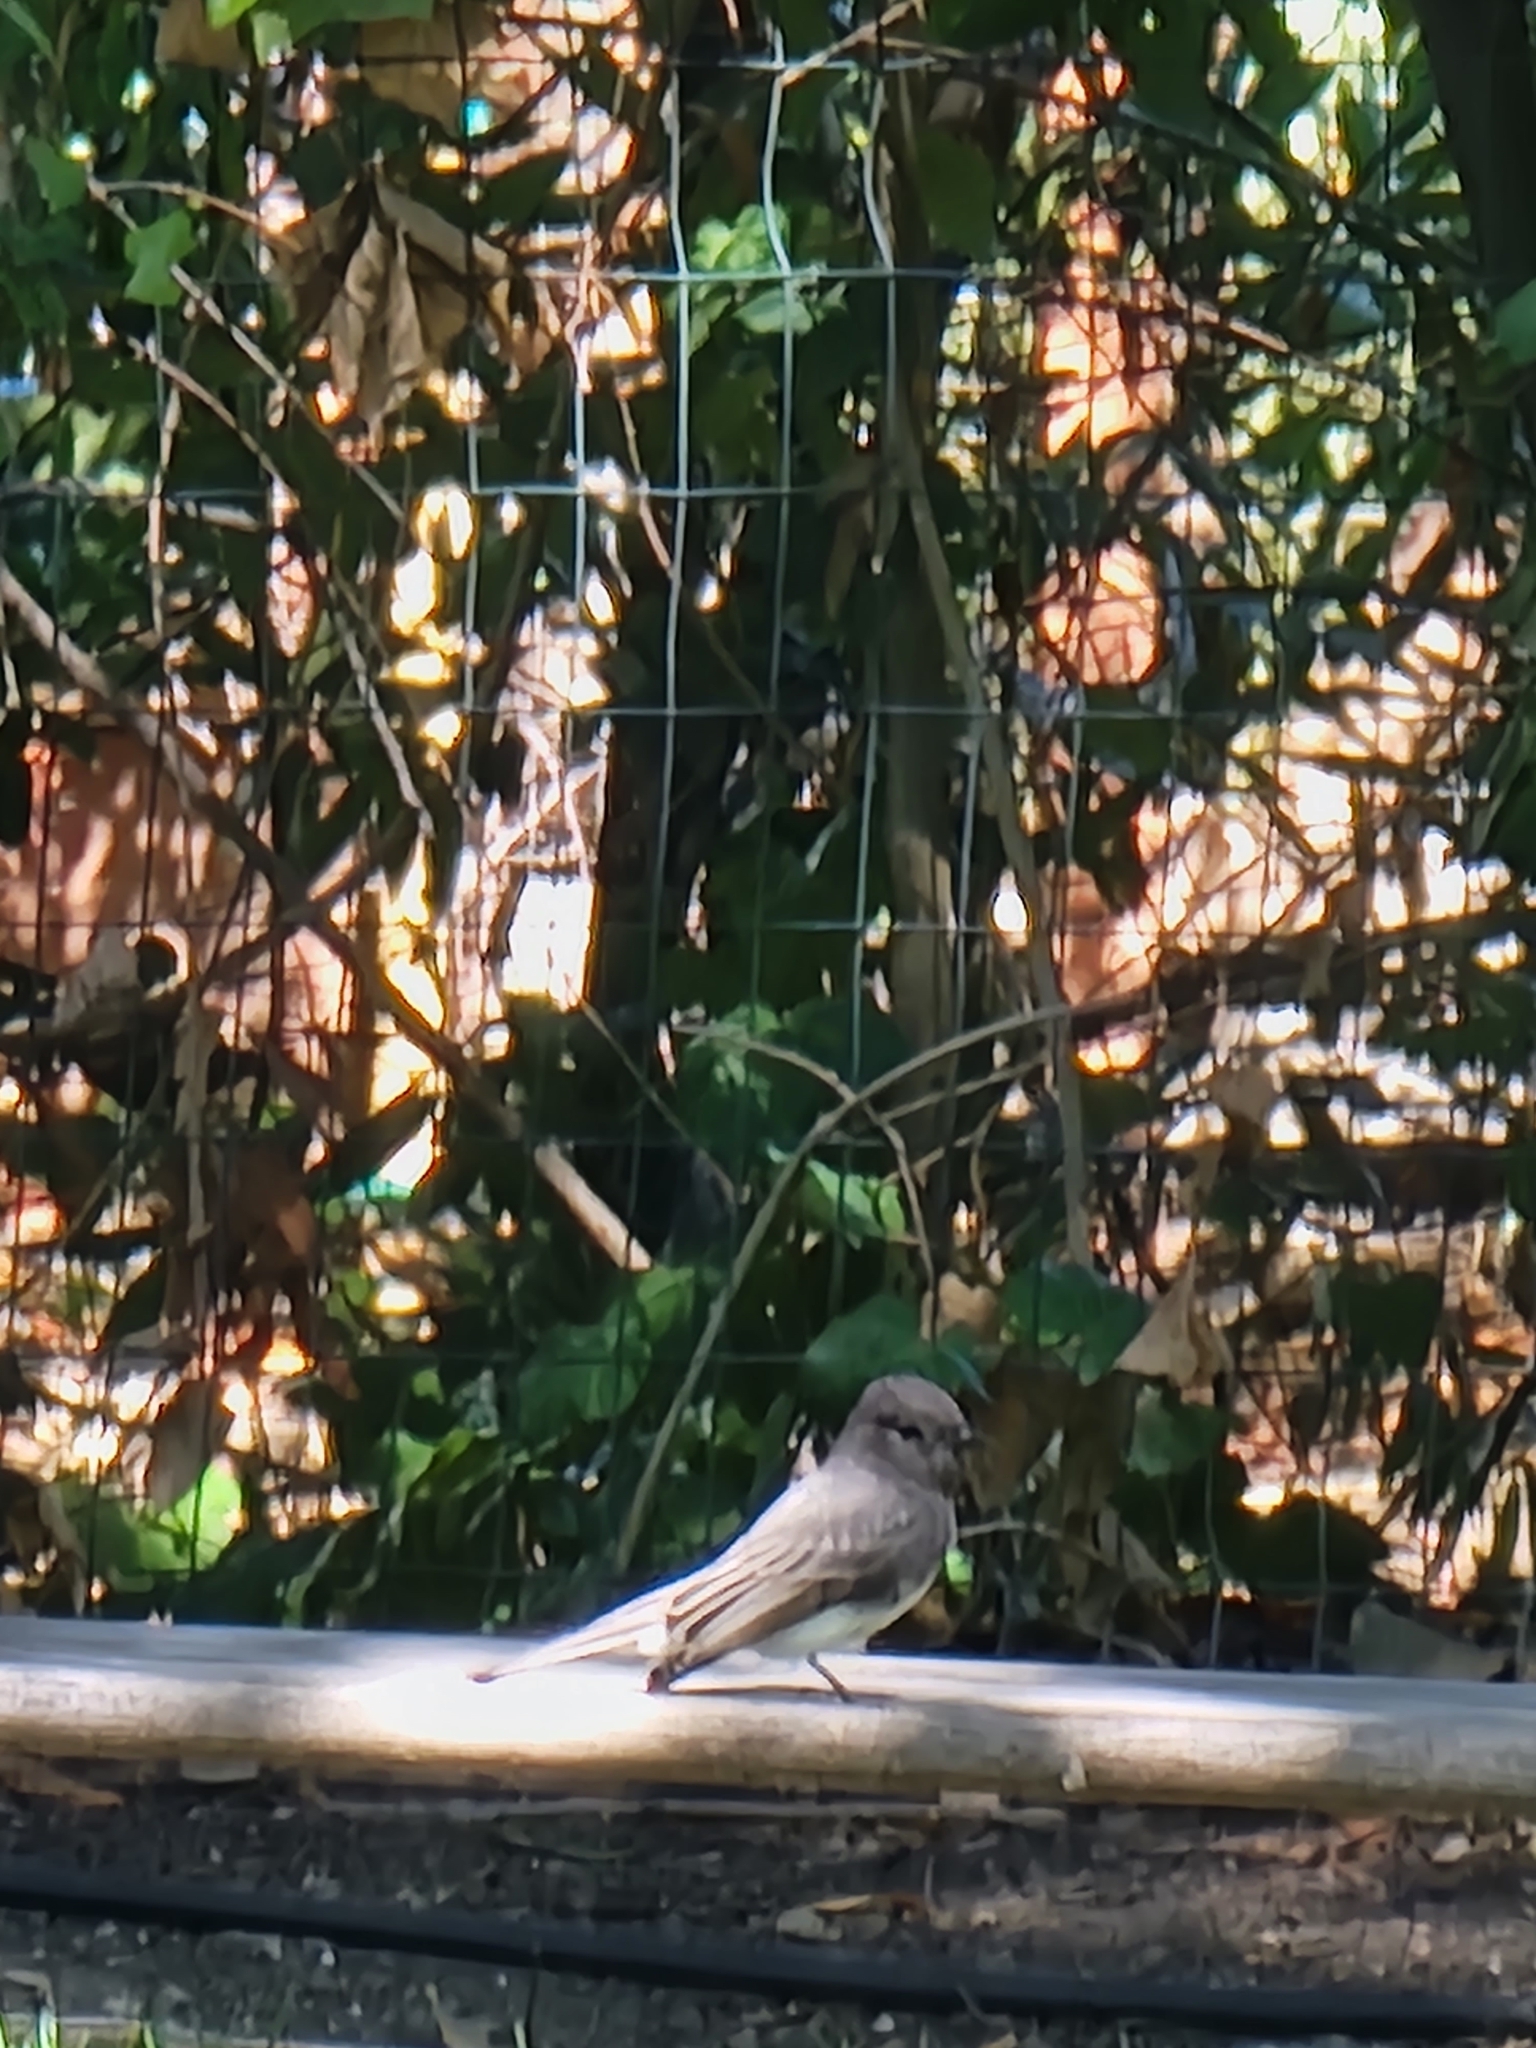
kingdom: Animalia
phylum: Chordata
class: Aves
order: Passeriformes
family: Tyrannidae
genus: Sayornis
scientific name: Sayornis nigricans
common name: Black phoebe
